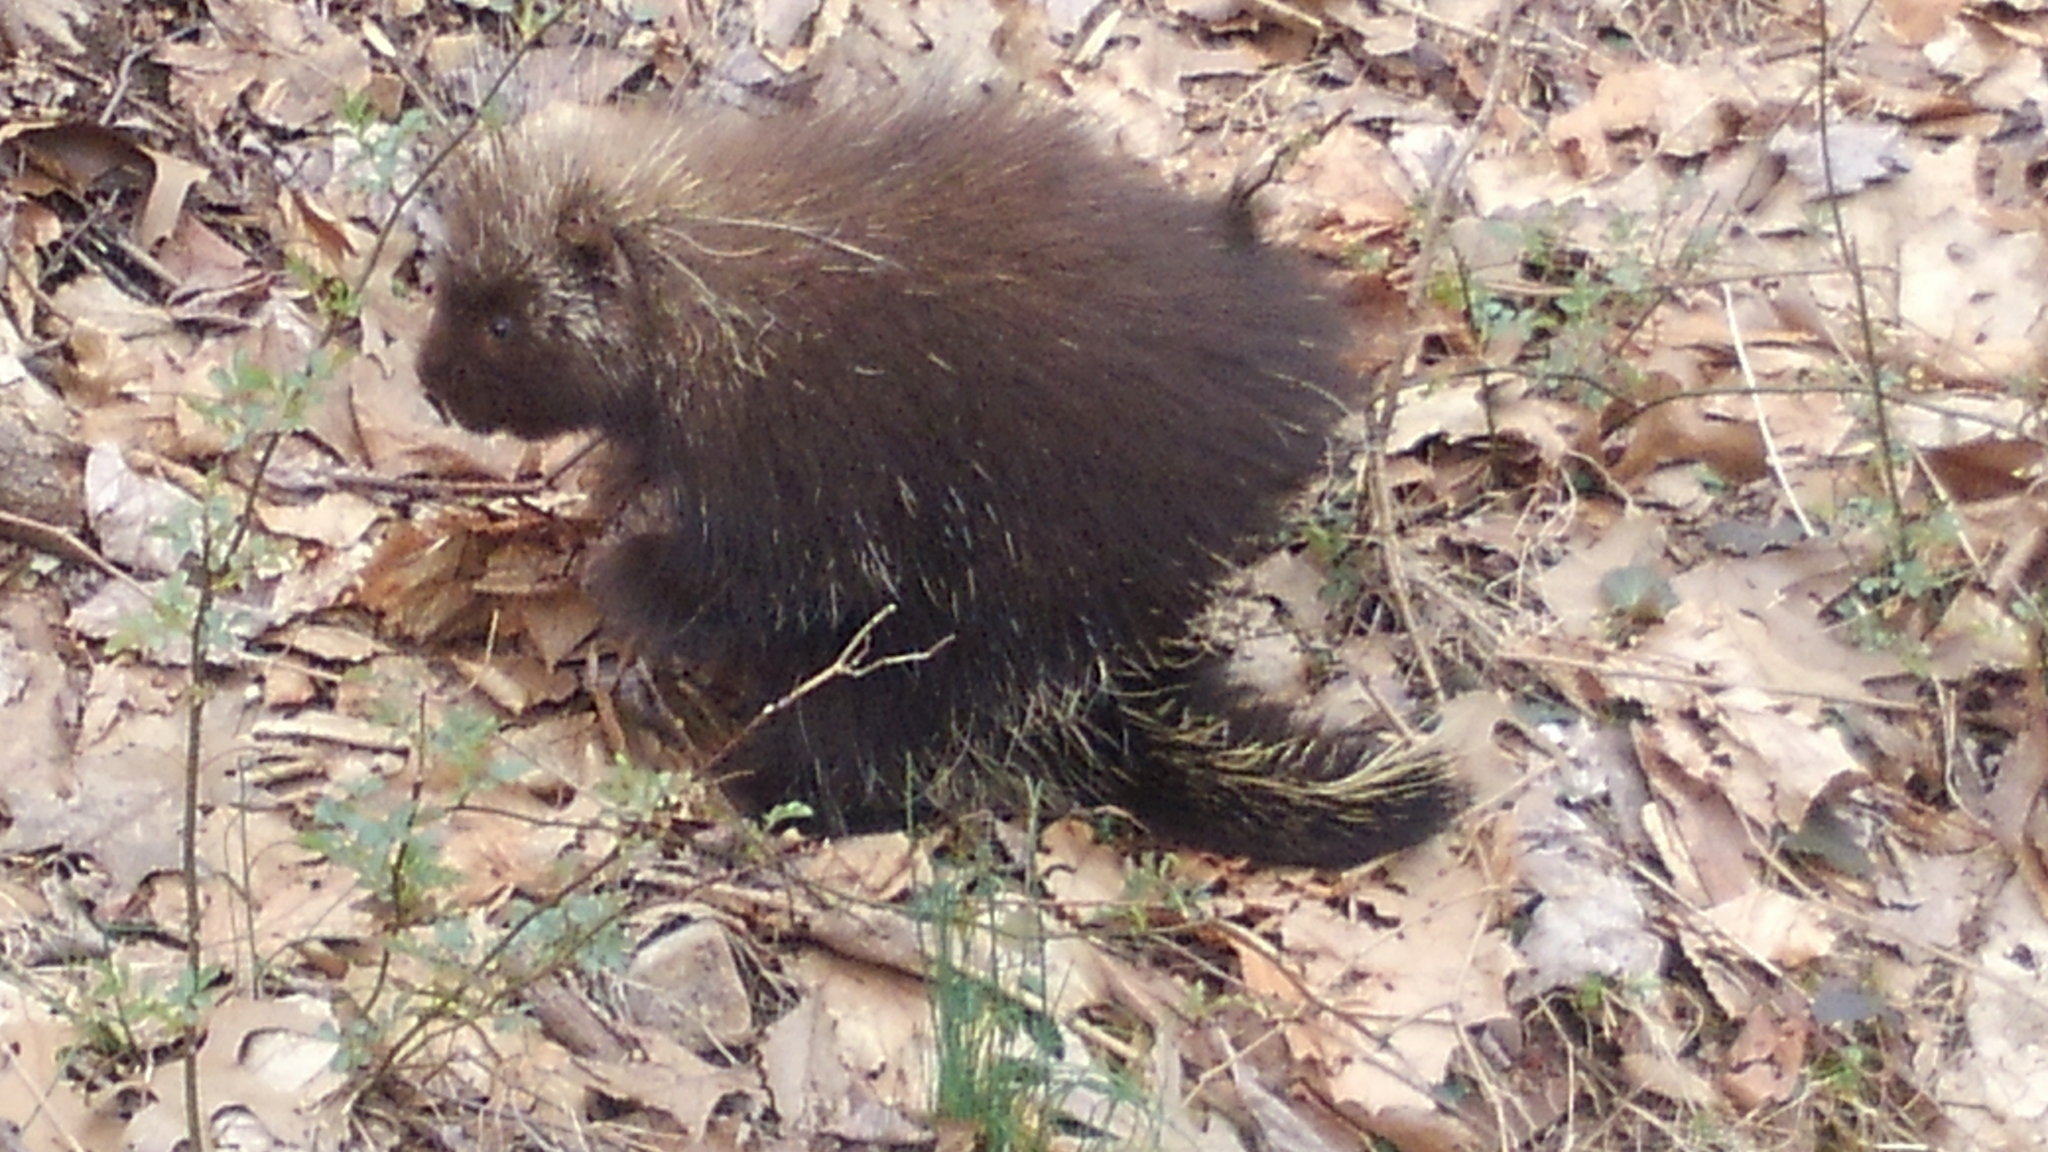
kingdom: Animalia
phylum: Chordata
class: Mammalia
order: Rodentia
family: Erethizontidae
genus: Erethizon
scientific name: Erethizon dorsatus
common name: North american porcupine
